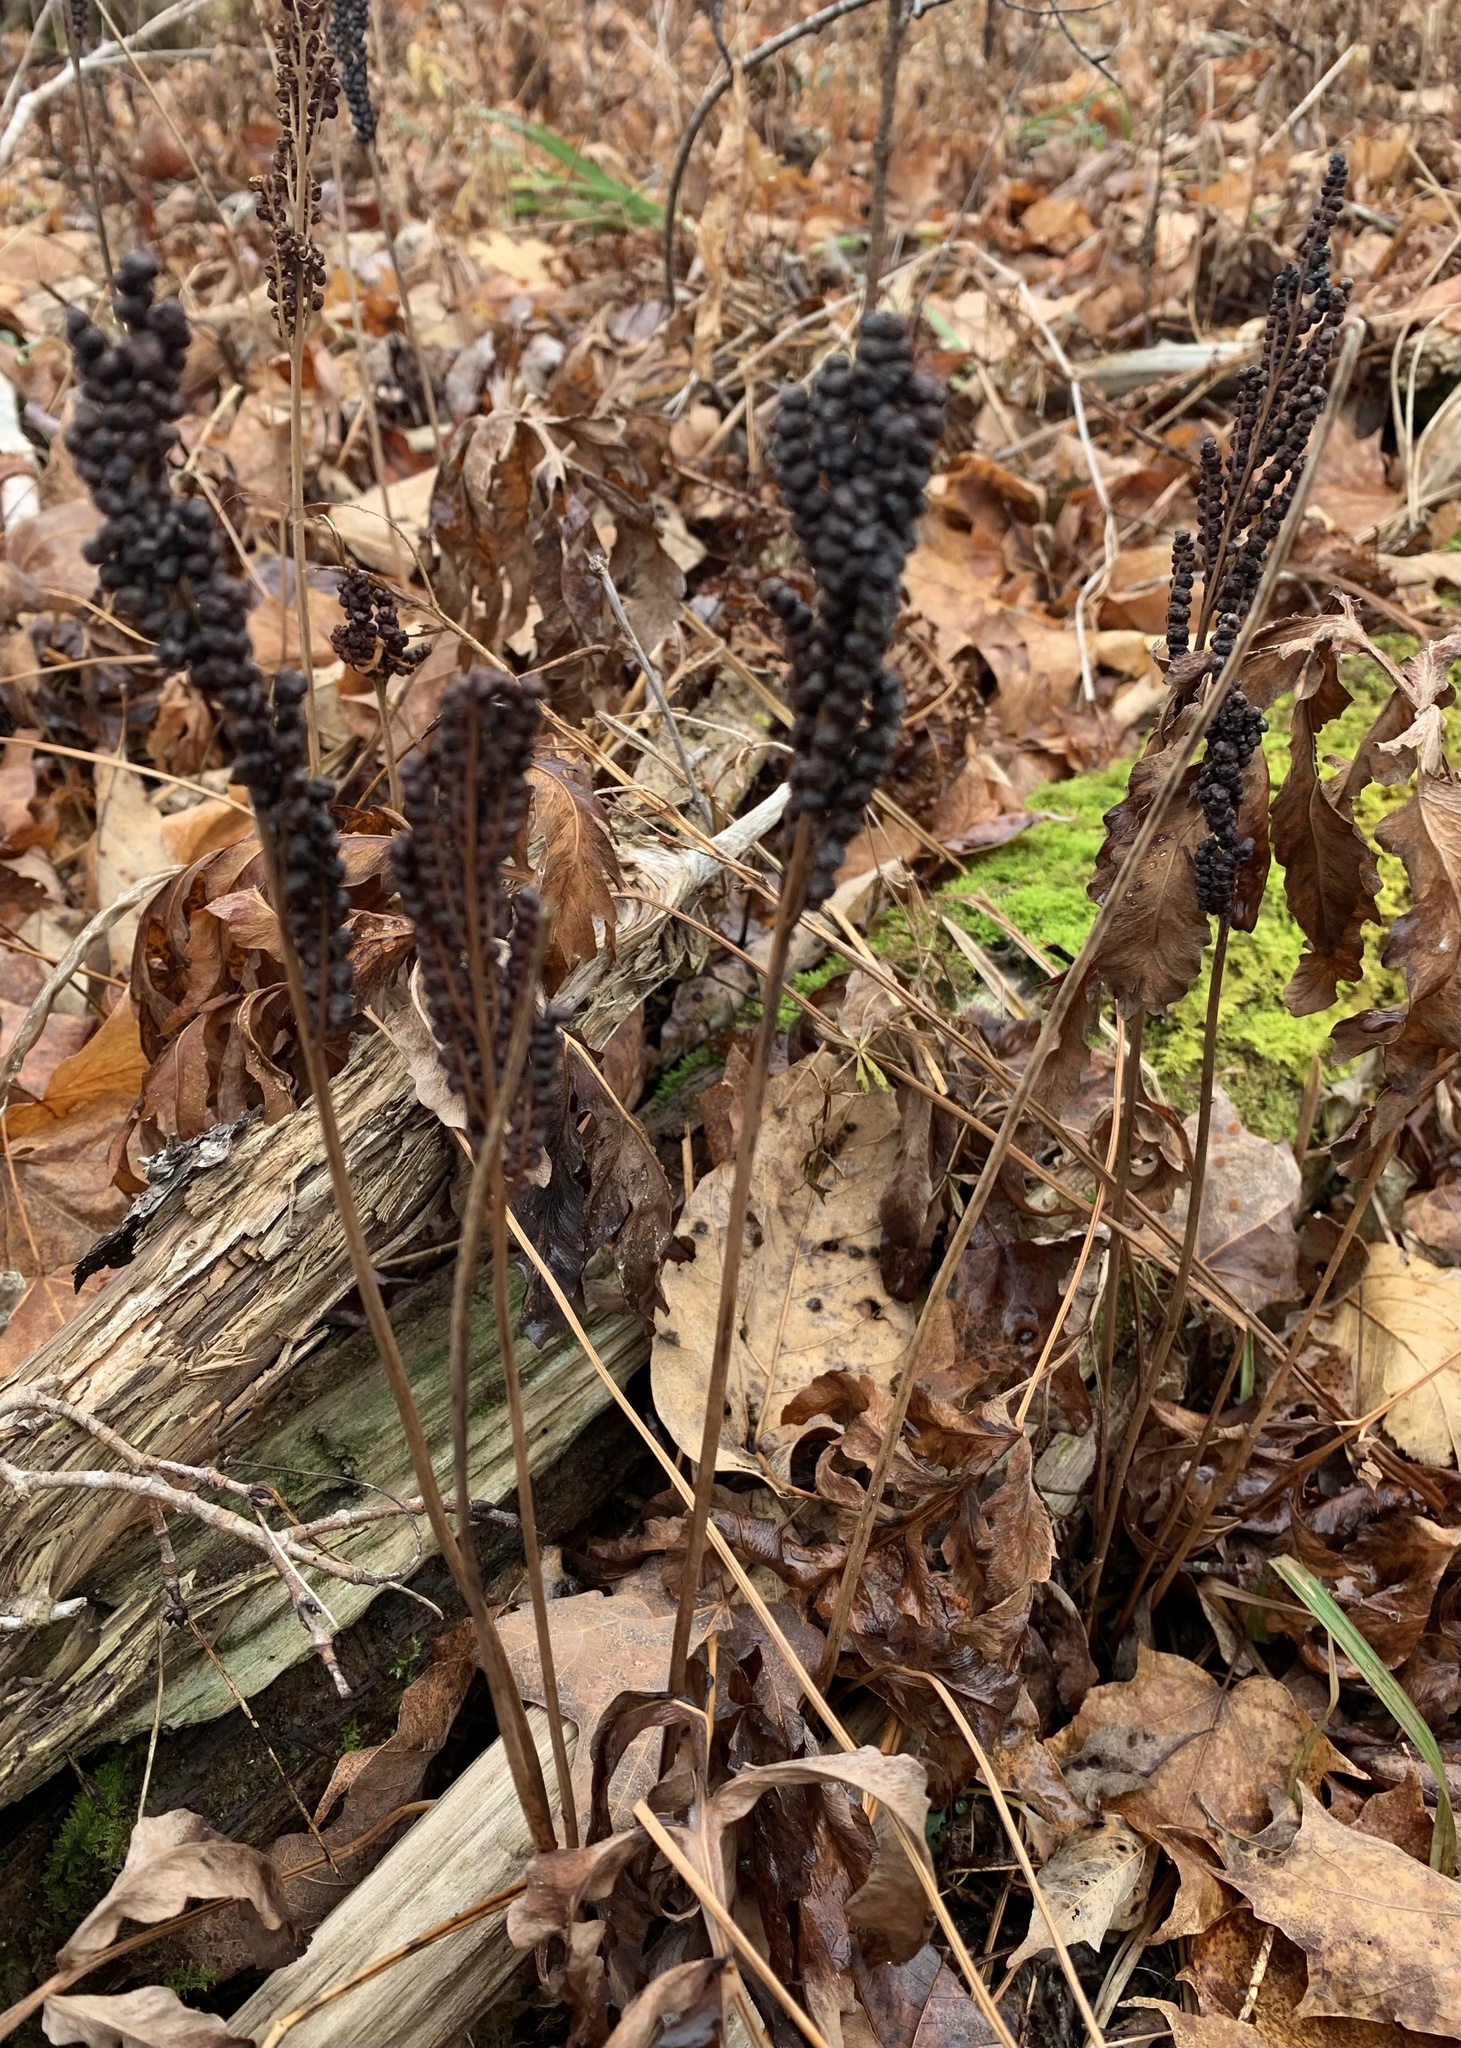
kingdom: Plantae
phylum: Tracheophyta
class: Polypodiopsida
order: Polypodiales
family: Onocleaceae
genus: Onoclea
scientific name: Onoclea sensibilis
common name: Sensitive fern
